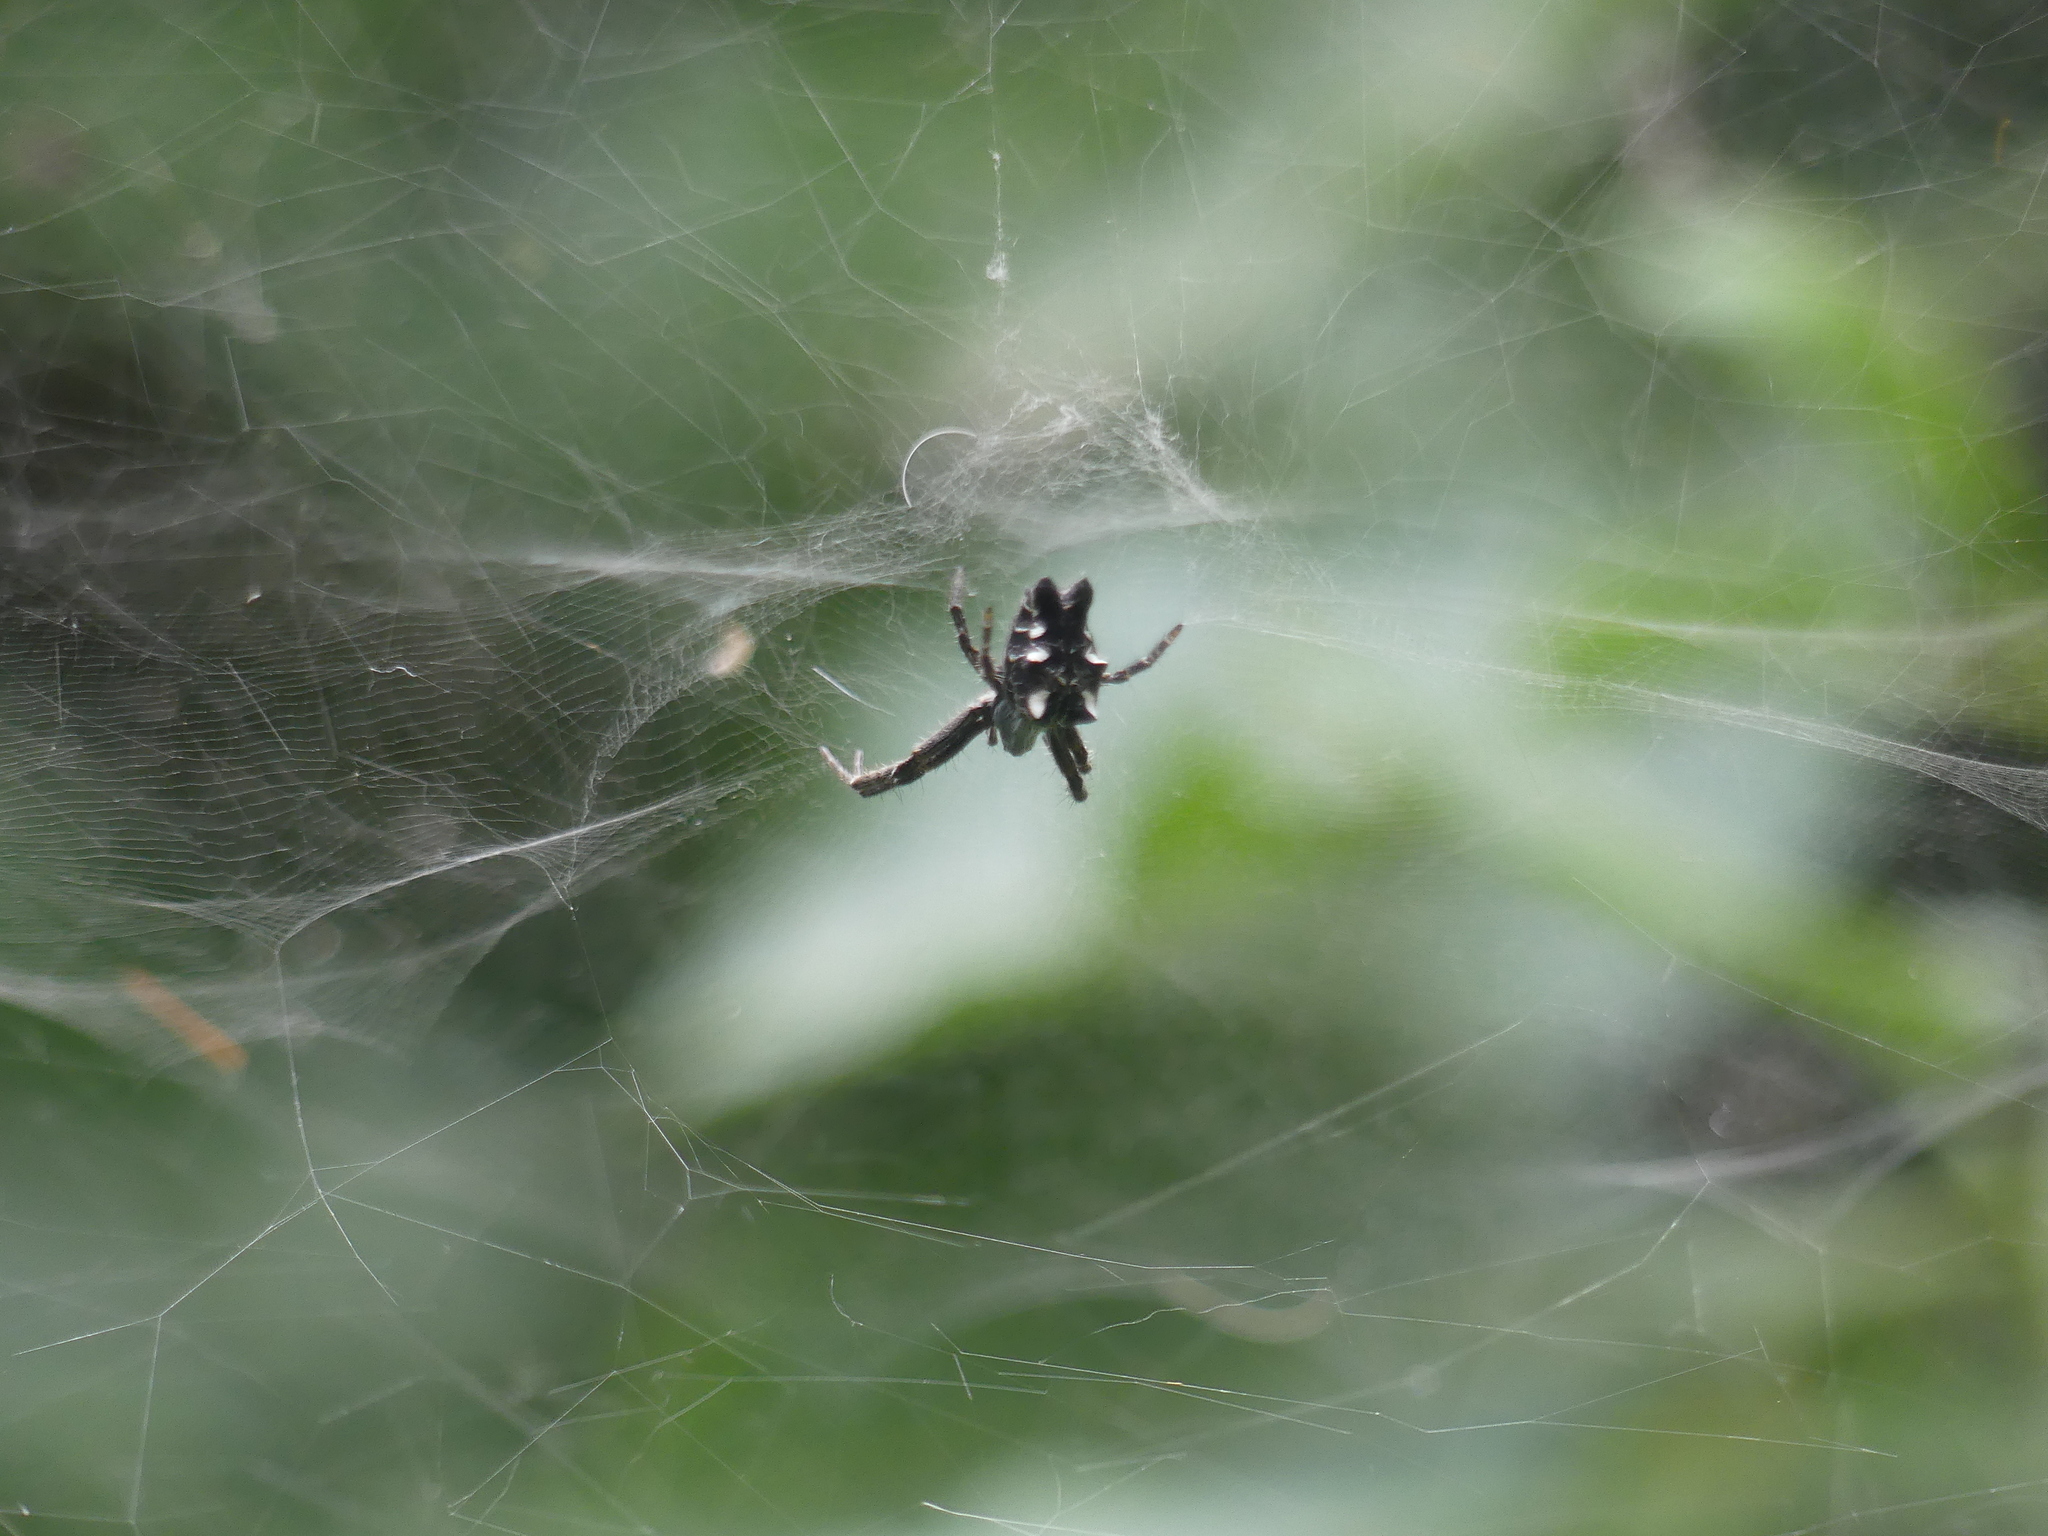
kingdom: Animalia
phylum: Arthropoda
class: Arachnida
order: Araneae
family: Araneidae
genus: Cyrtophora
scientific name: Cyrtophora citricola
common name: Orb weavers
